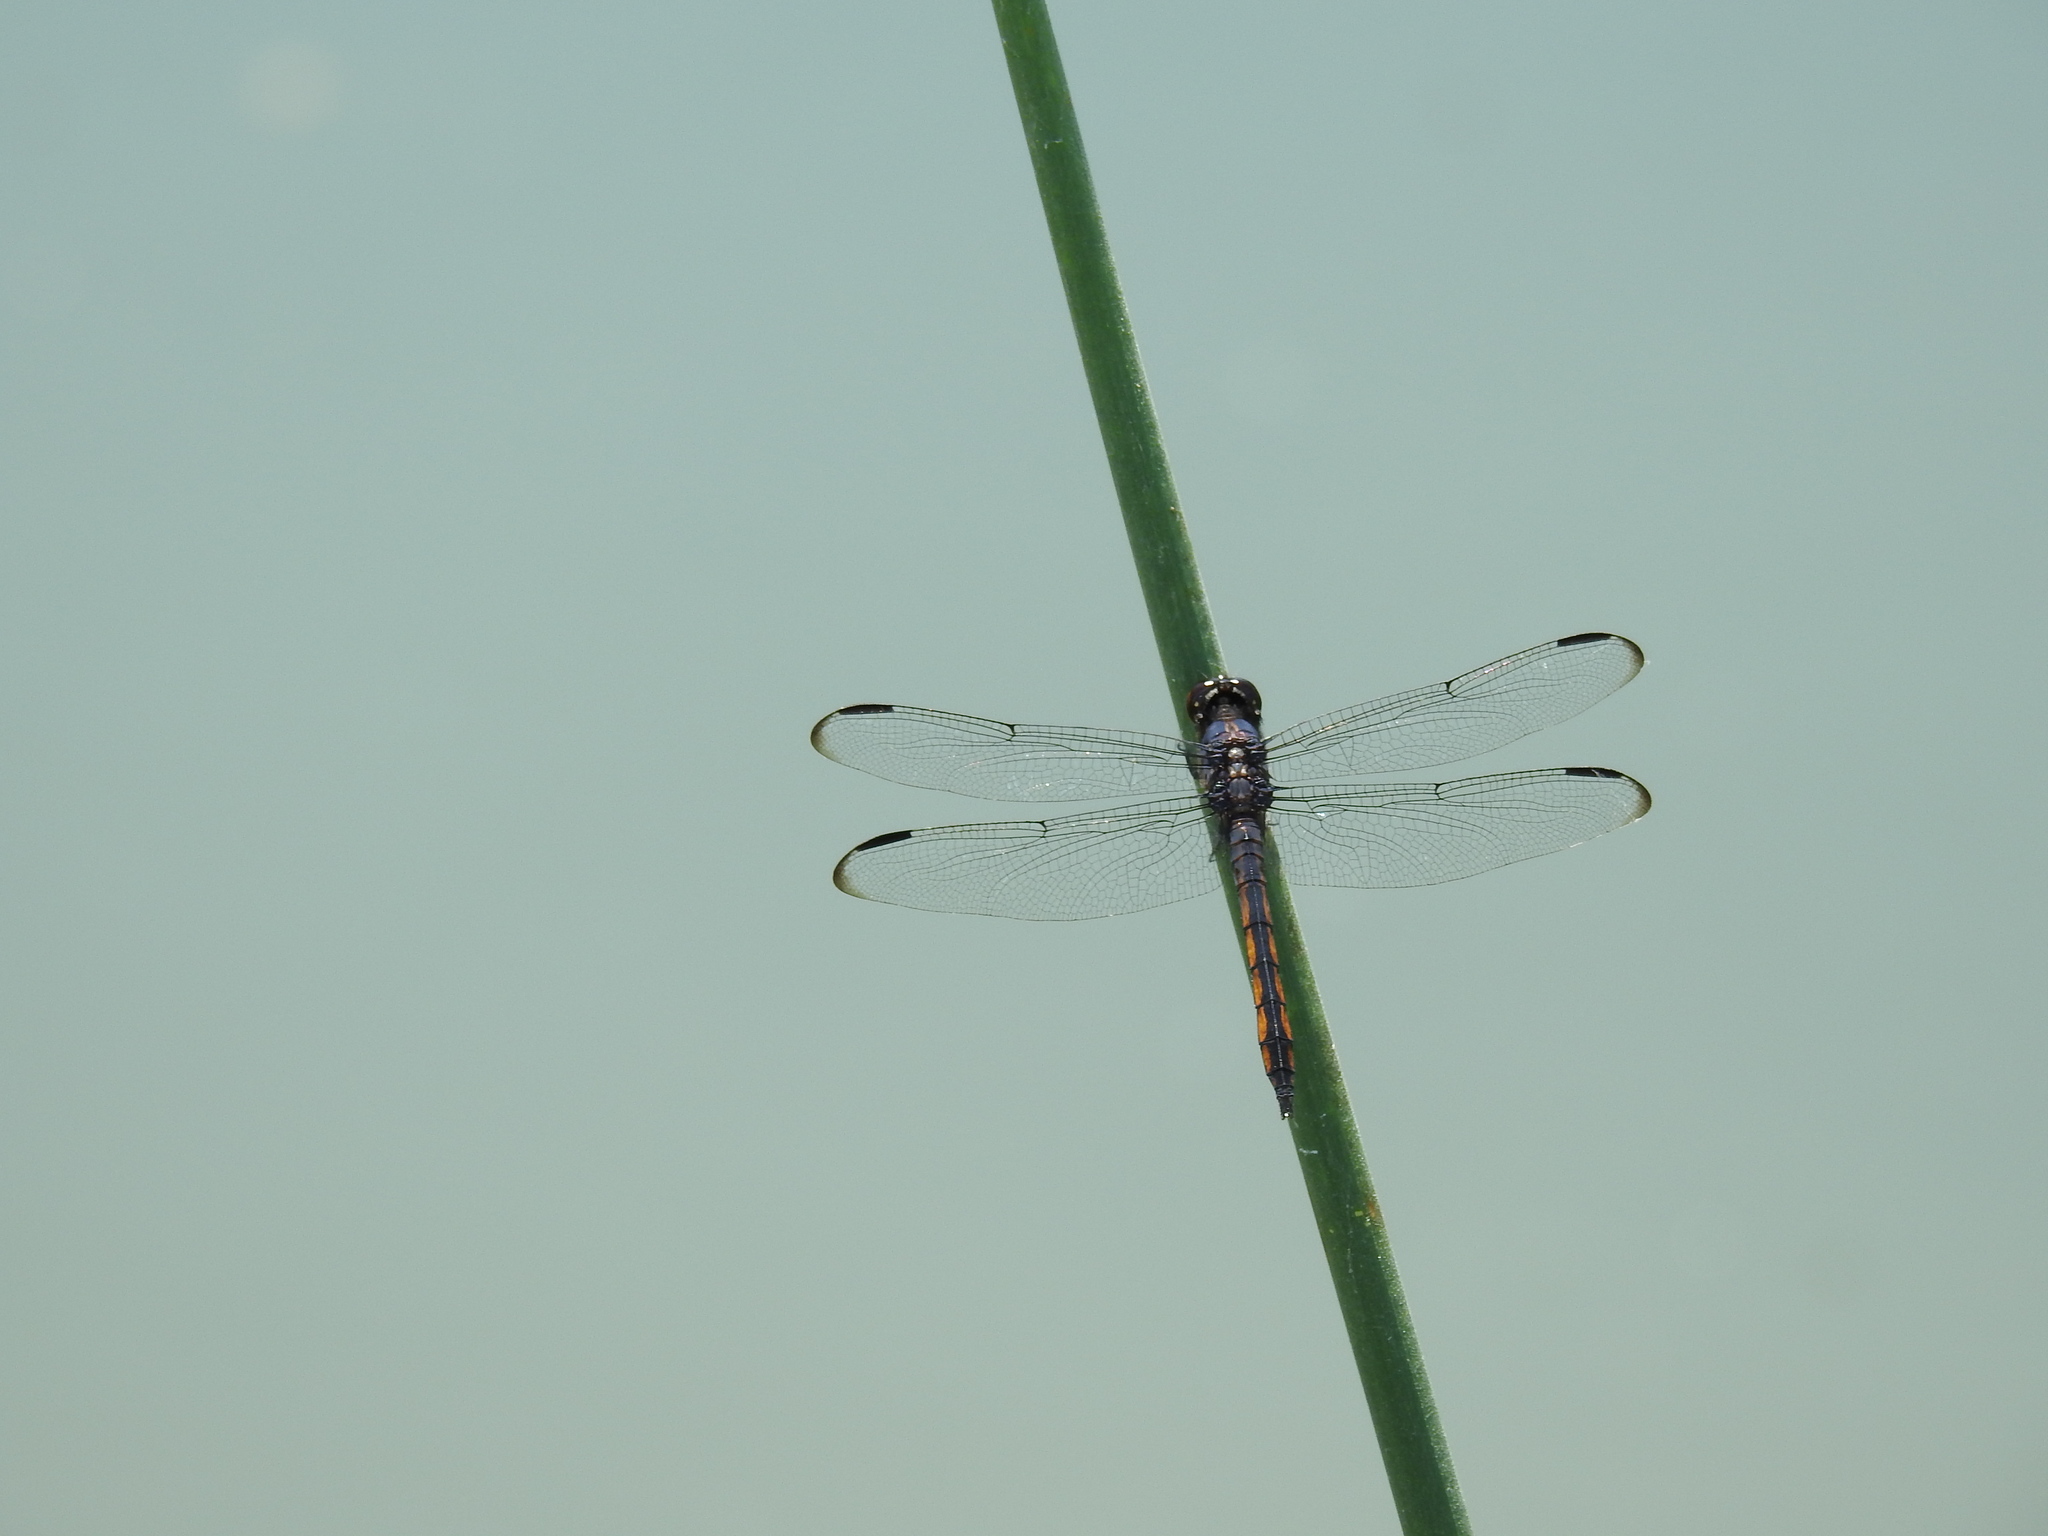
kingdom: Animalia
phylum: Arthropoda
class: Insecta
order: Odonata
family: Libellulidae
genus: Libellula
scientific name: Libellula incesta
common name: Slaty skimmer
